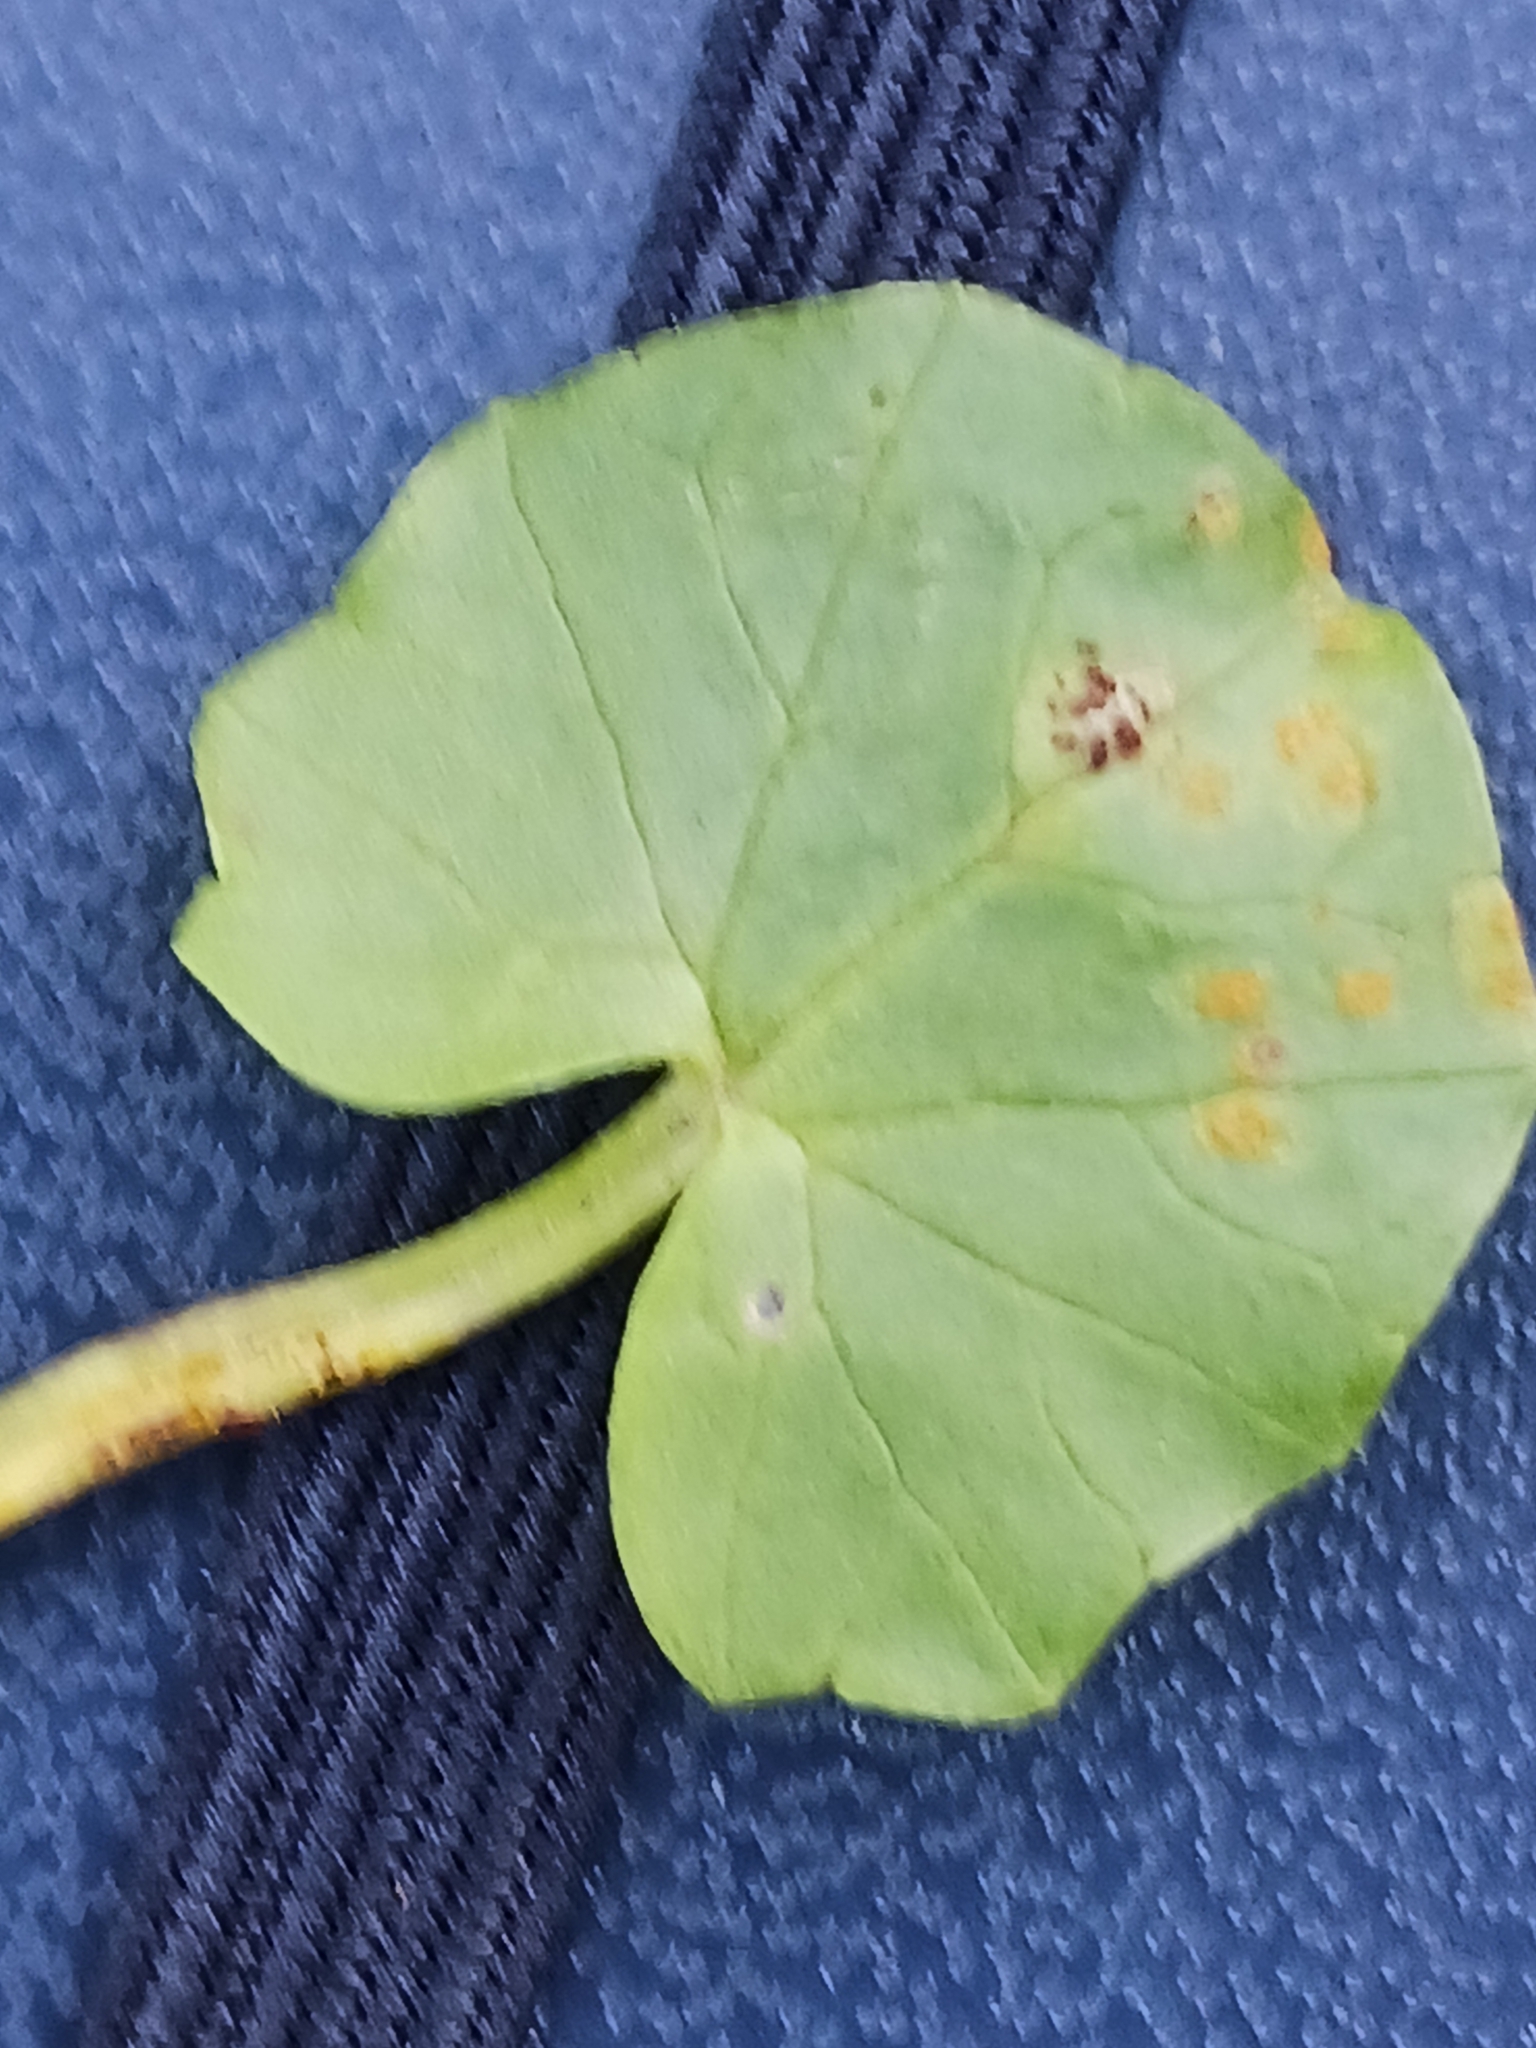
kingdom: Fungi
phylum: Basidiomycota
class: Pucciniomycetes
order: Pucciniales
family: Pucciniaceae
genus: Uromyces
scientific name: Uromyces ficariae
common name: Bitter chocolate rust
